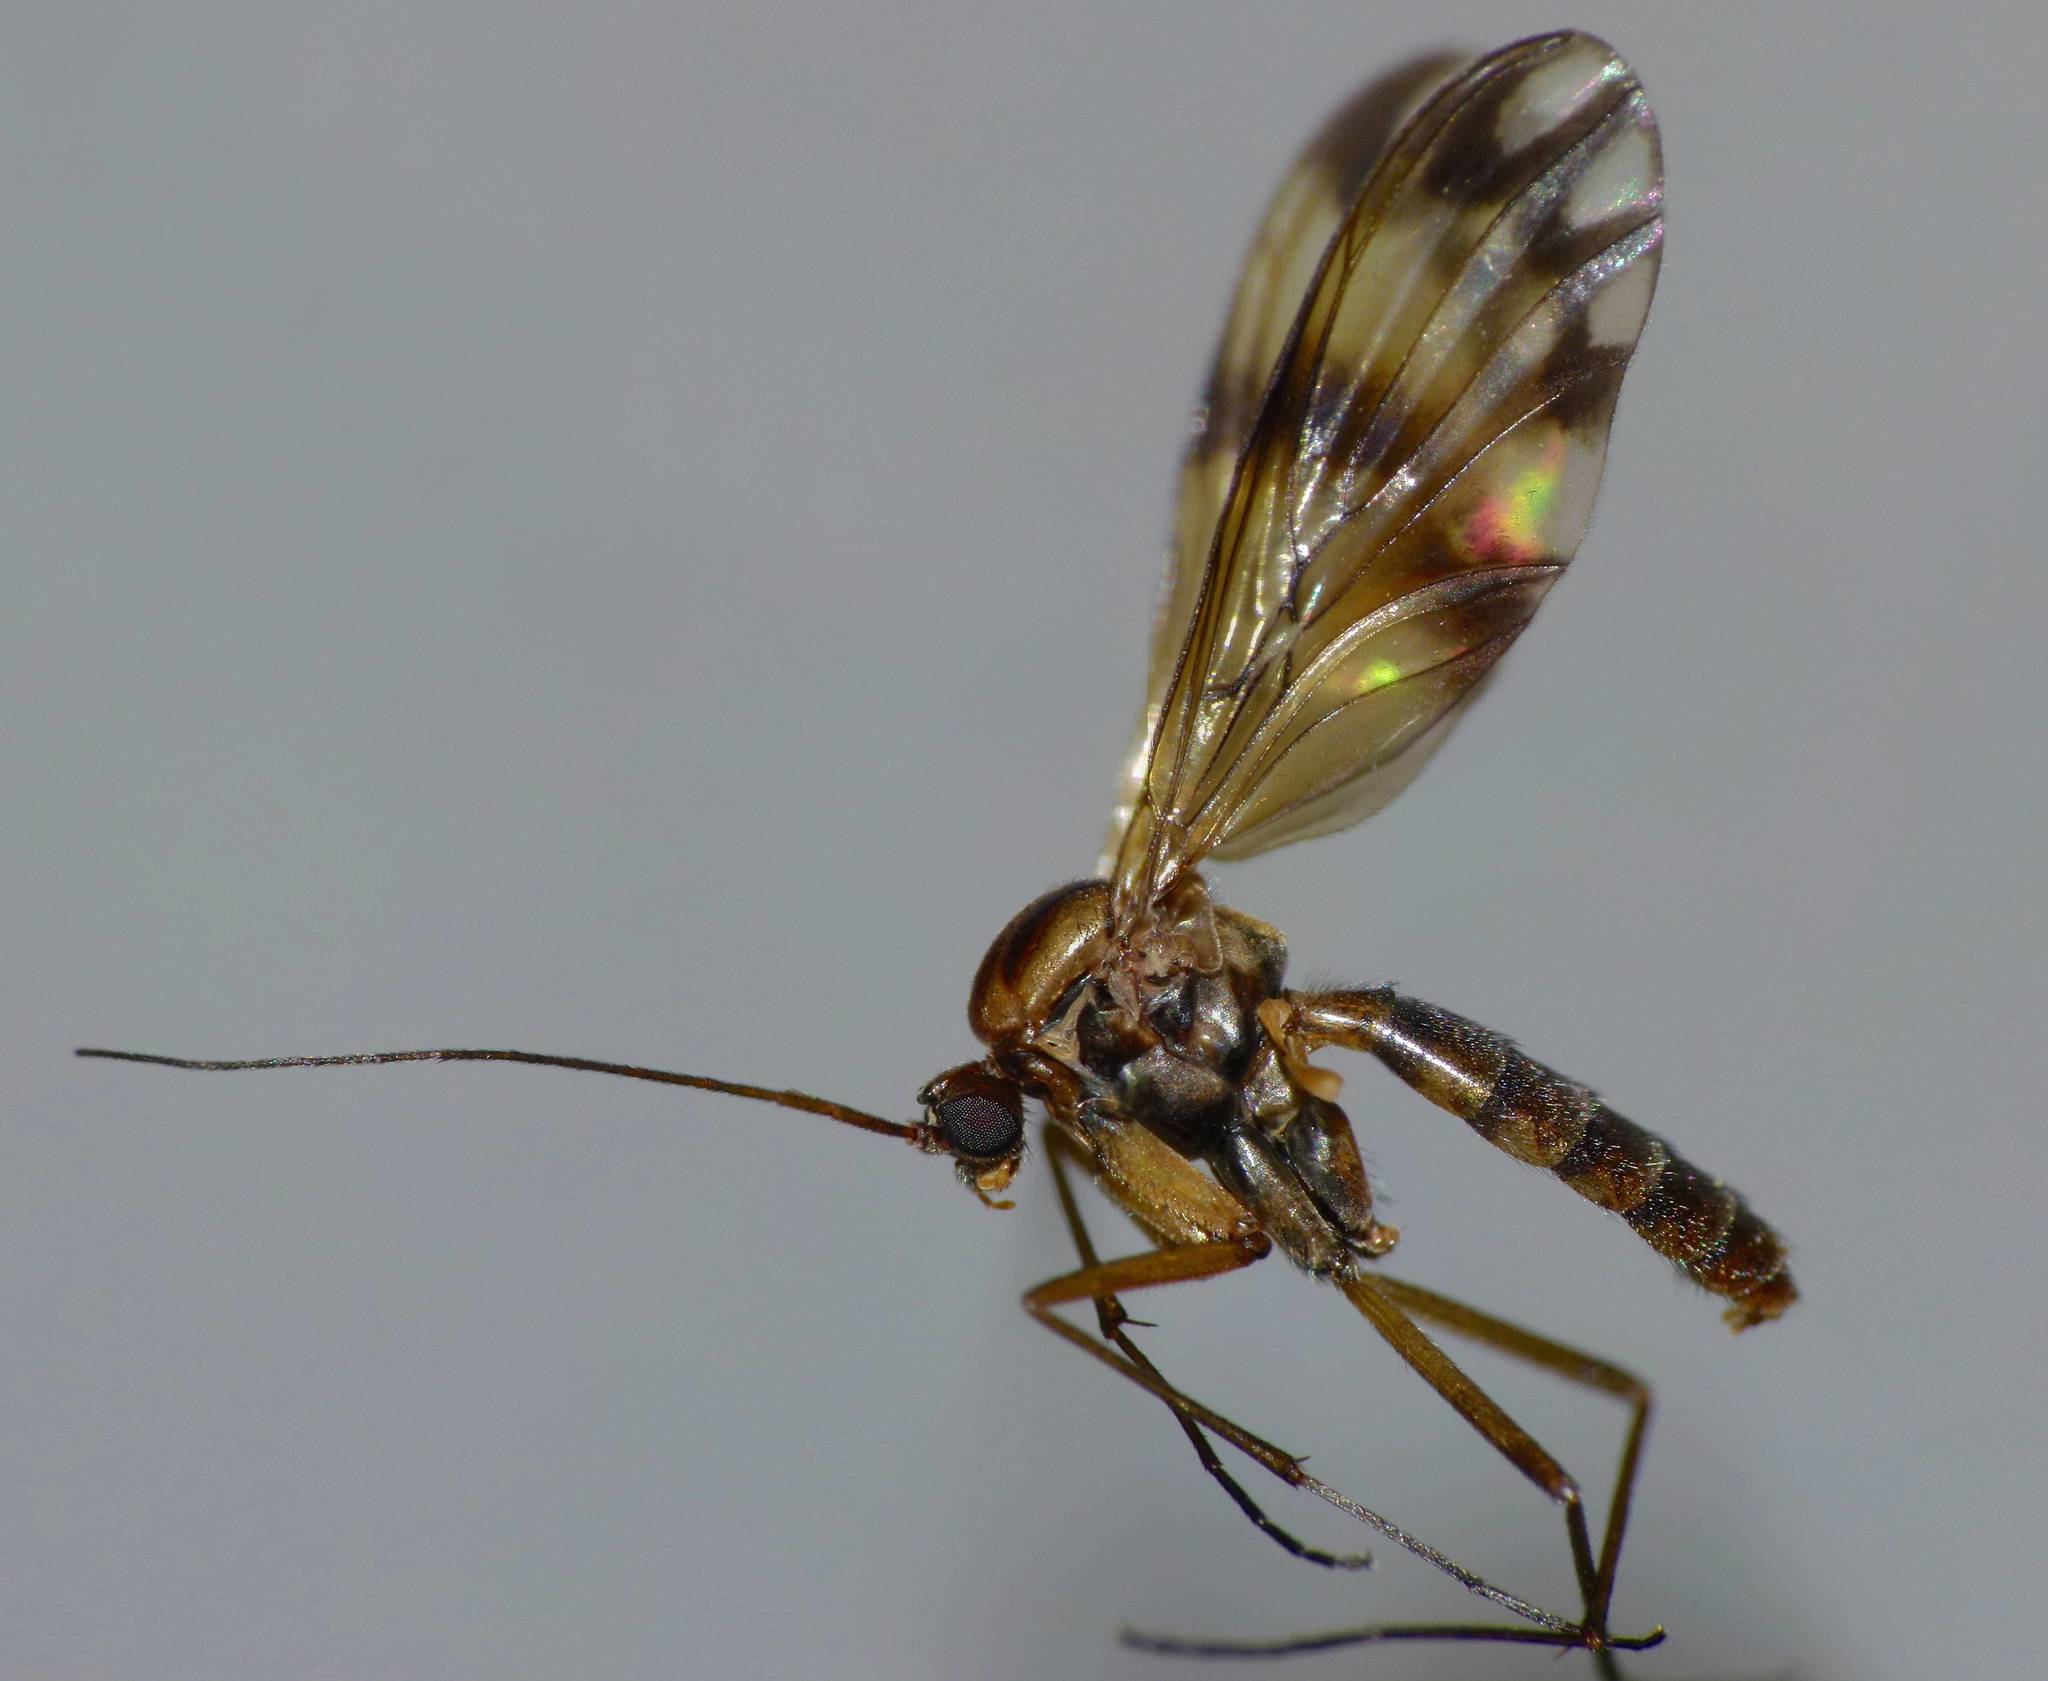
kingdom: Animalia
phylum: Arthropoda
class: Insecta
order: Diptera
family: Keroplatidae
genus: Macrocera
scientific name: Macrocera hudsoni
